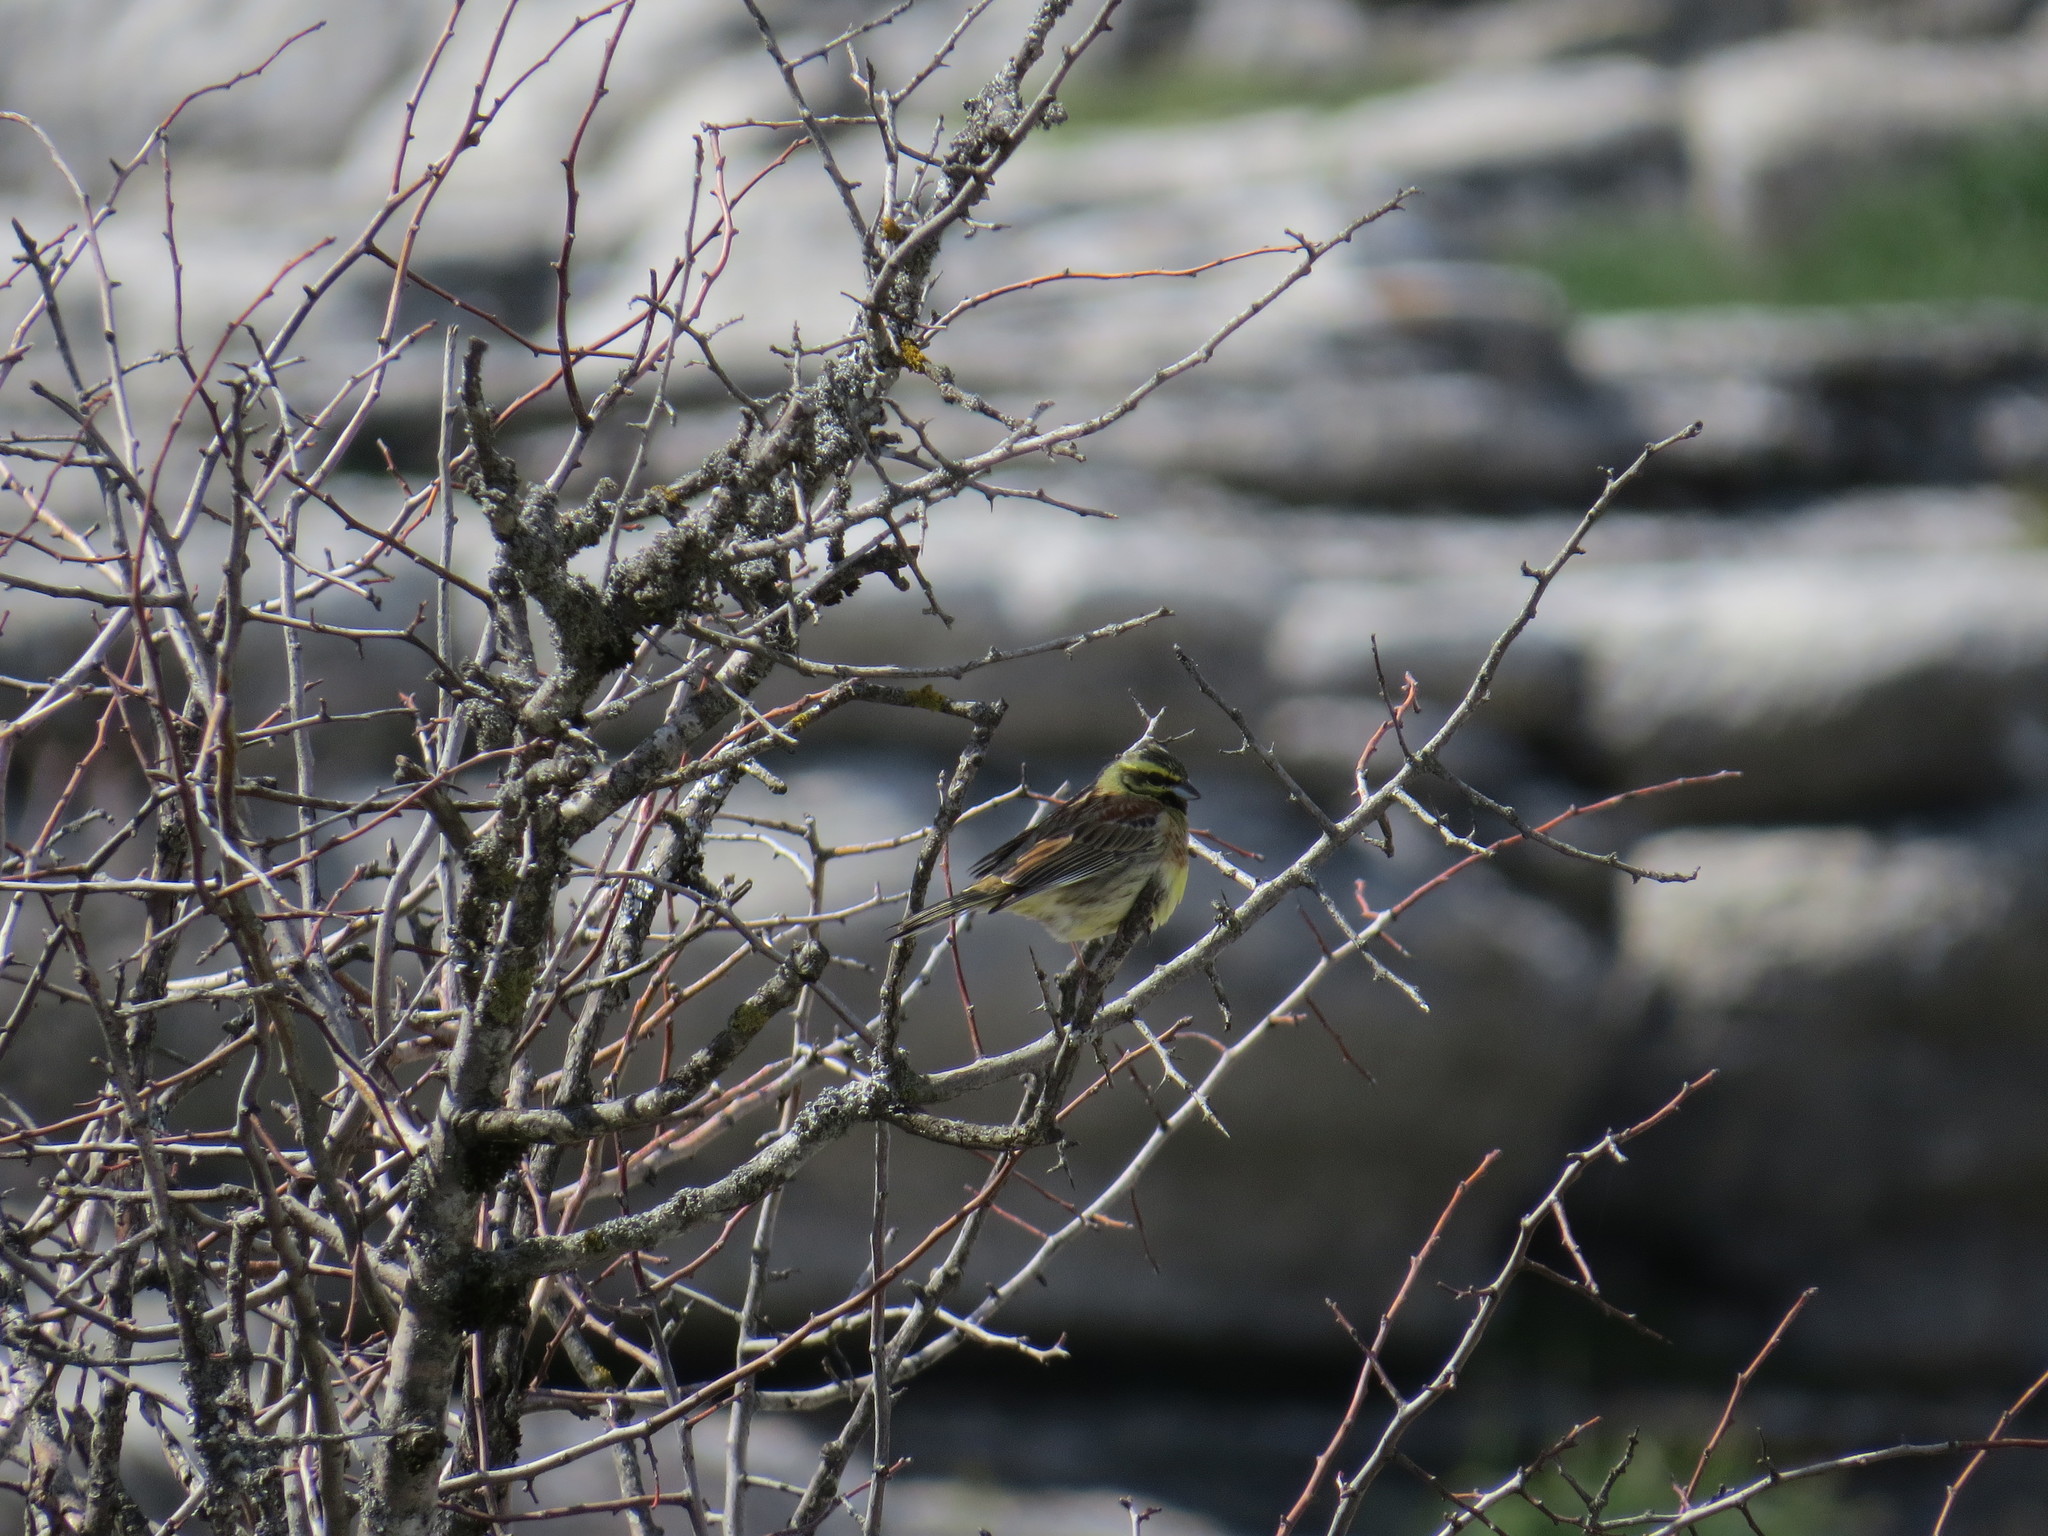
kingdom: Animalia
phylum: Chordata
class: Aves
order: Passeriformes
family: Emberizidae
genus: Emberiza
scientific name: Emberiza cirlus
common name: Cirl bunting
